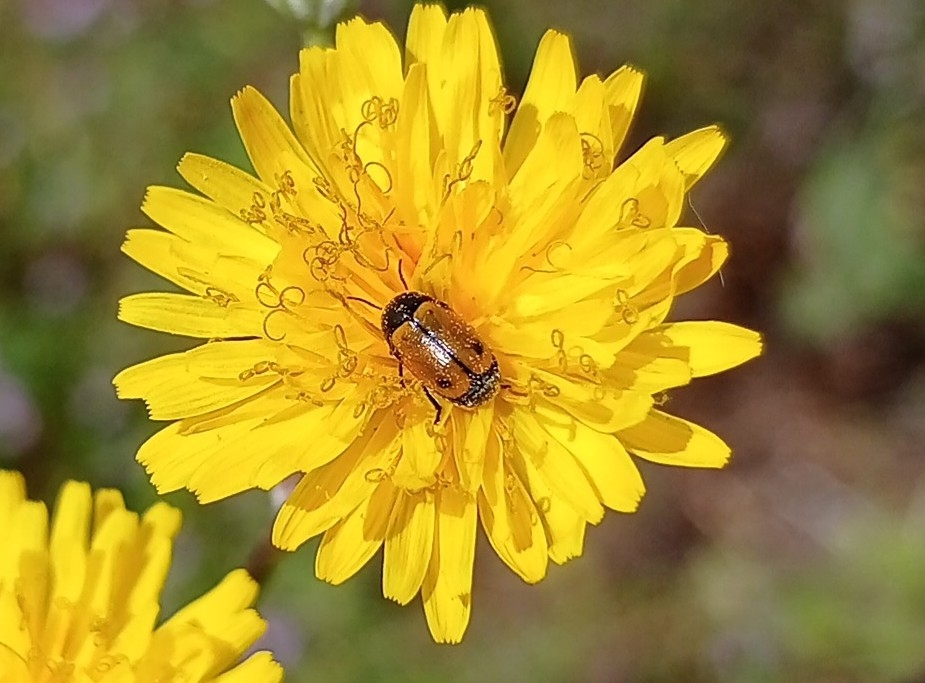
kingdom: Animalia
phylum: Arthropoda
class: Insecta
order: Coleoptera
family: Chrysomelidae
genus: Cryptocephalus
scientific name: Cryptocephalus rugicollis
